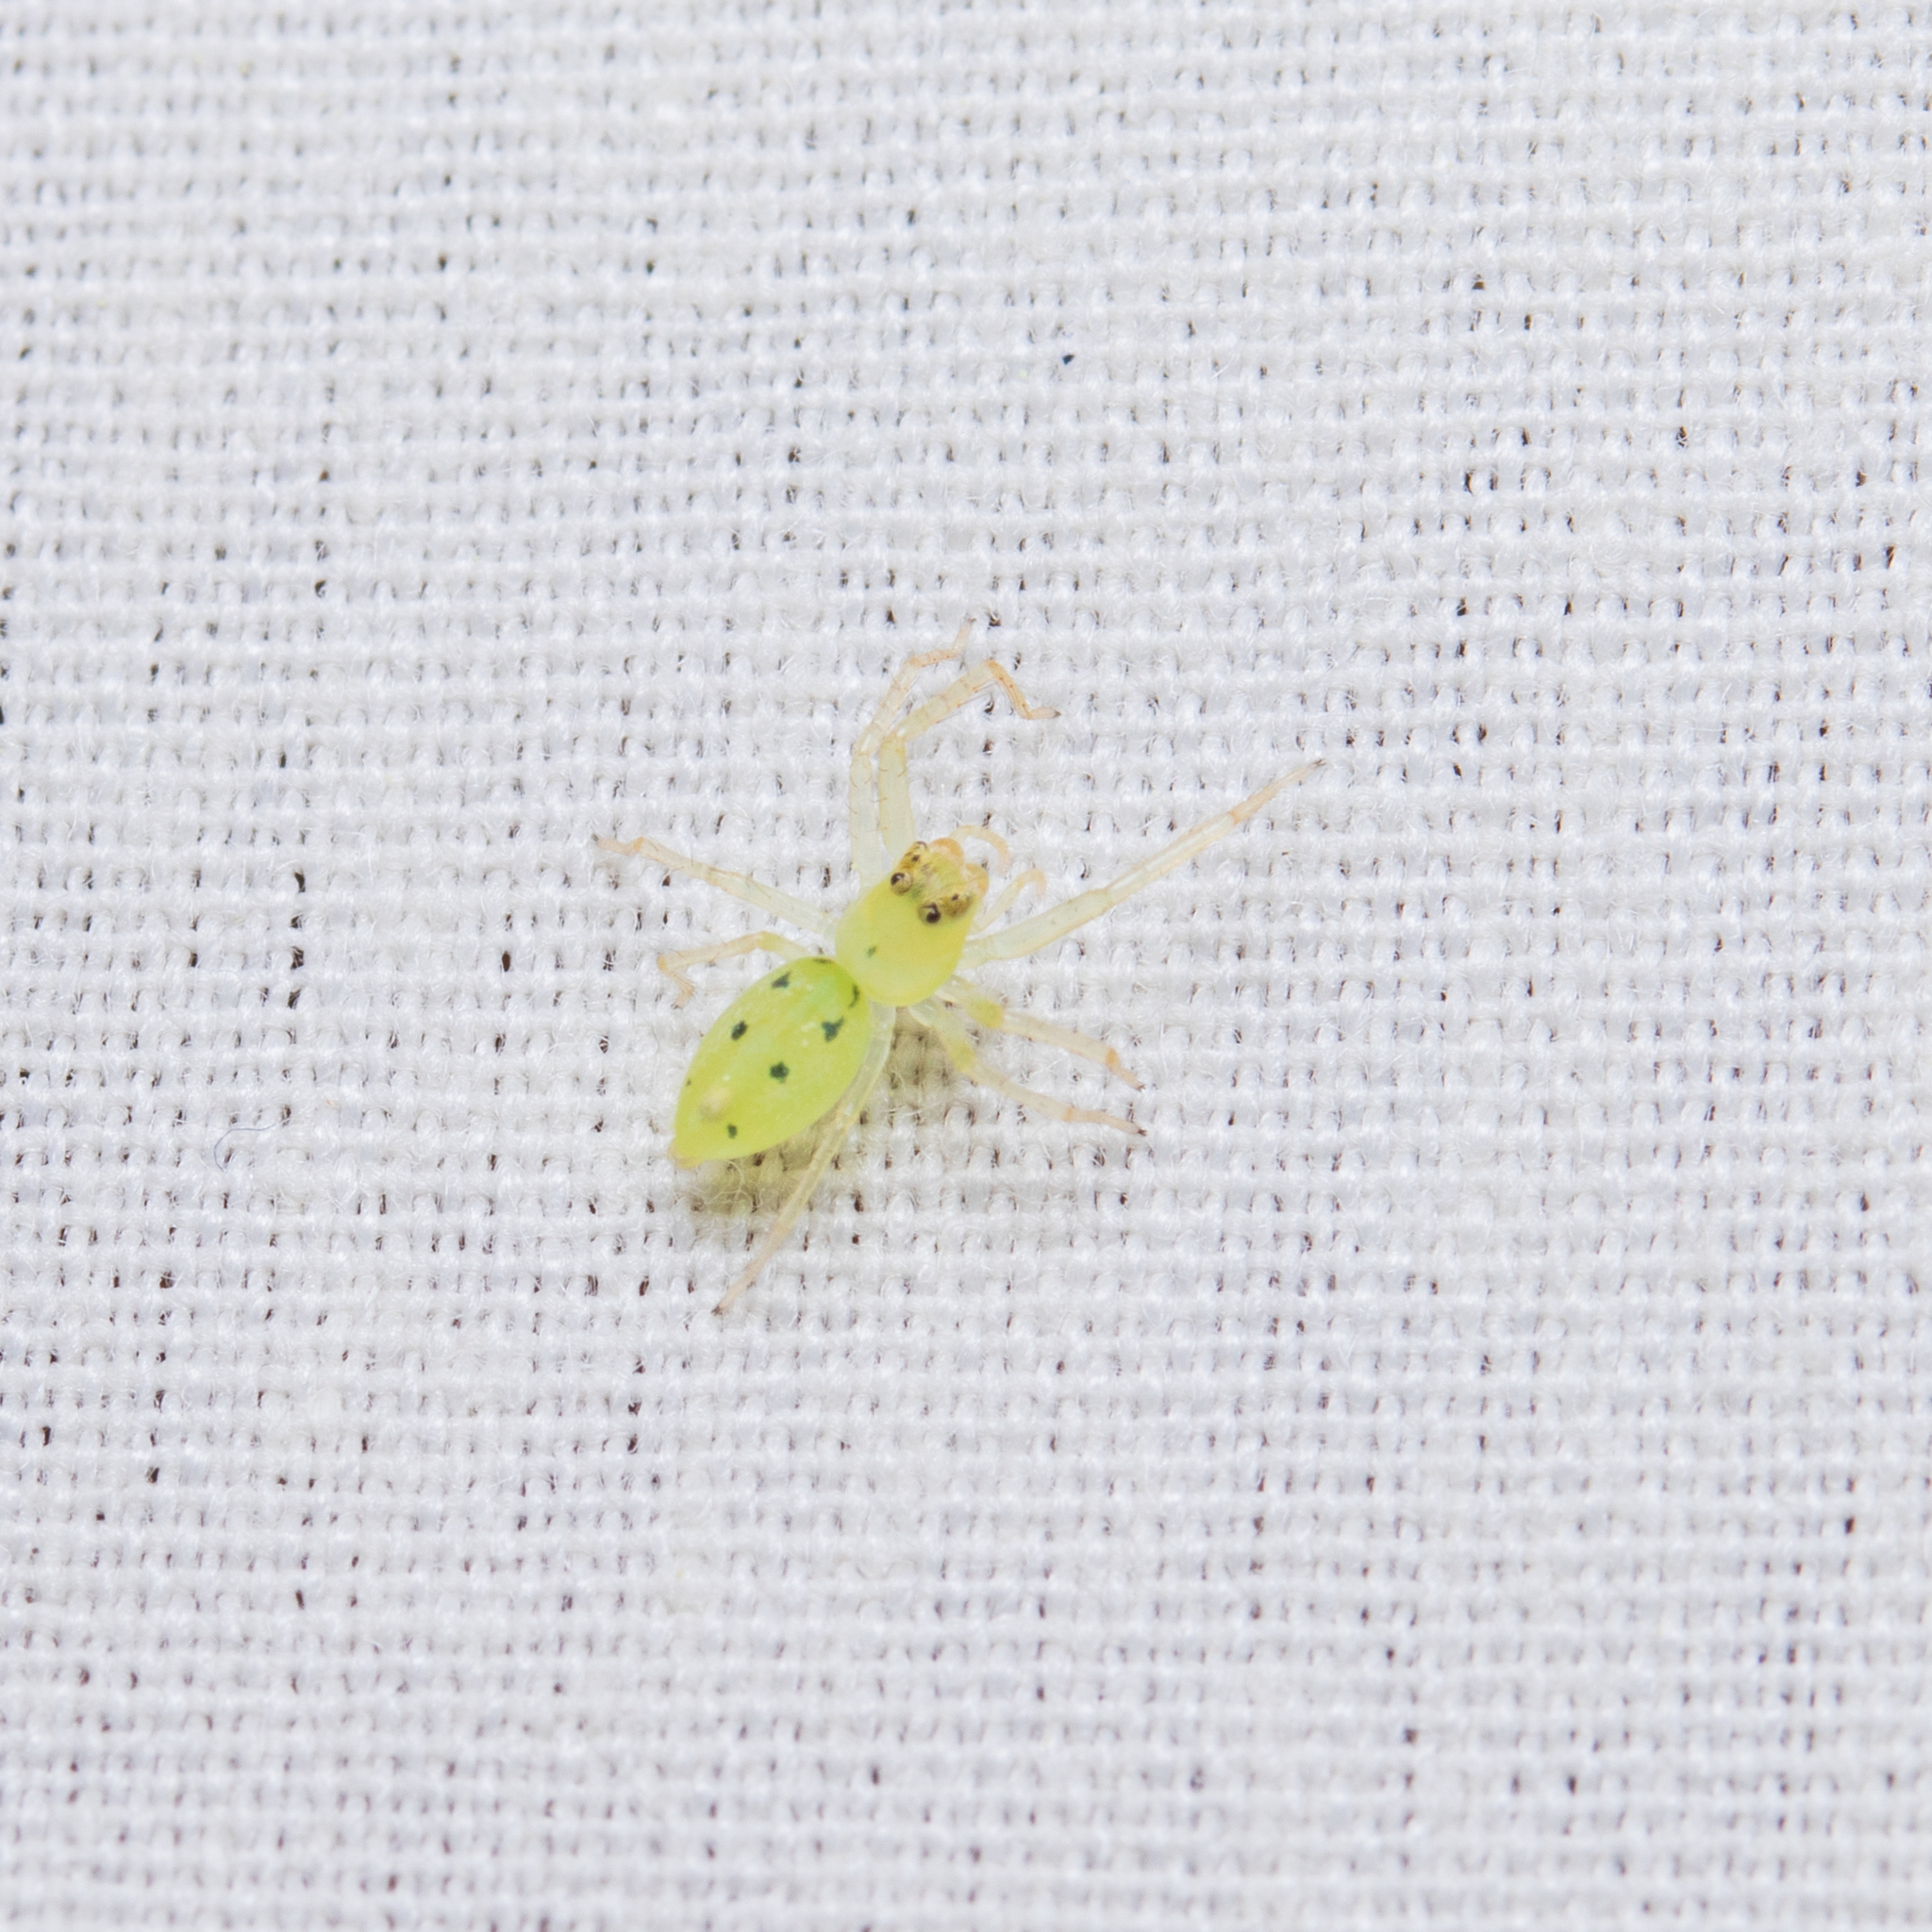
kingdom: Animalia
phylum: Arthropoda
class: Arachnida
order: Araneae
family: Salticidae
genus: Lyssomanes
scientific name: Lyssomanes viridis
